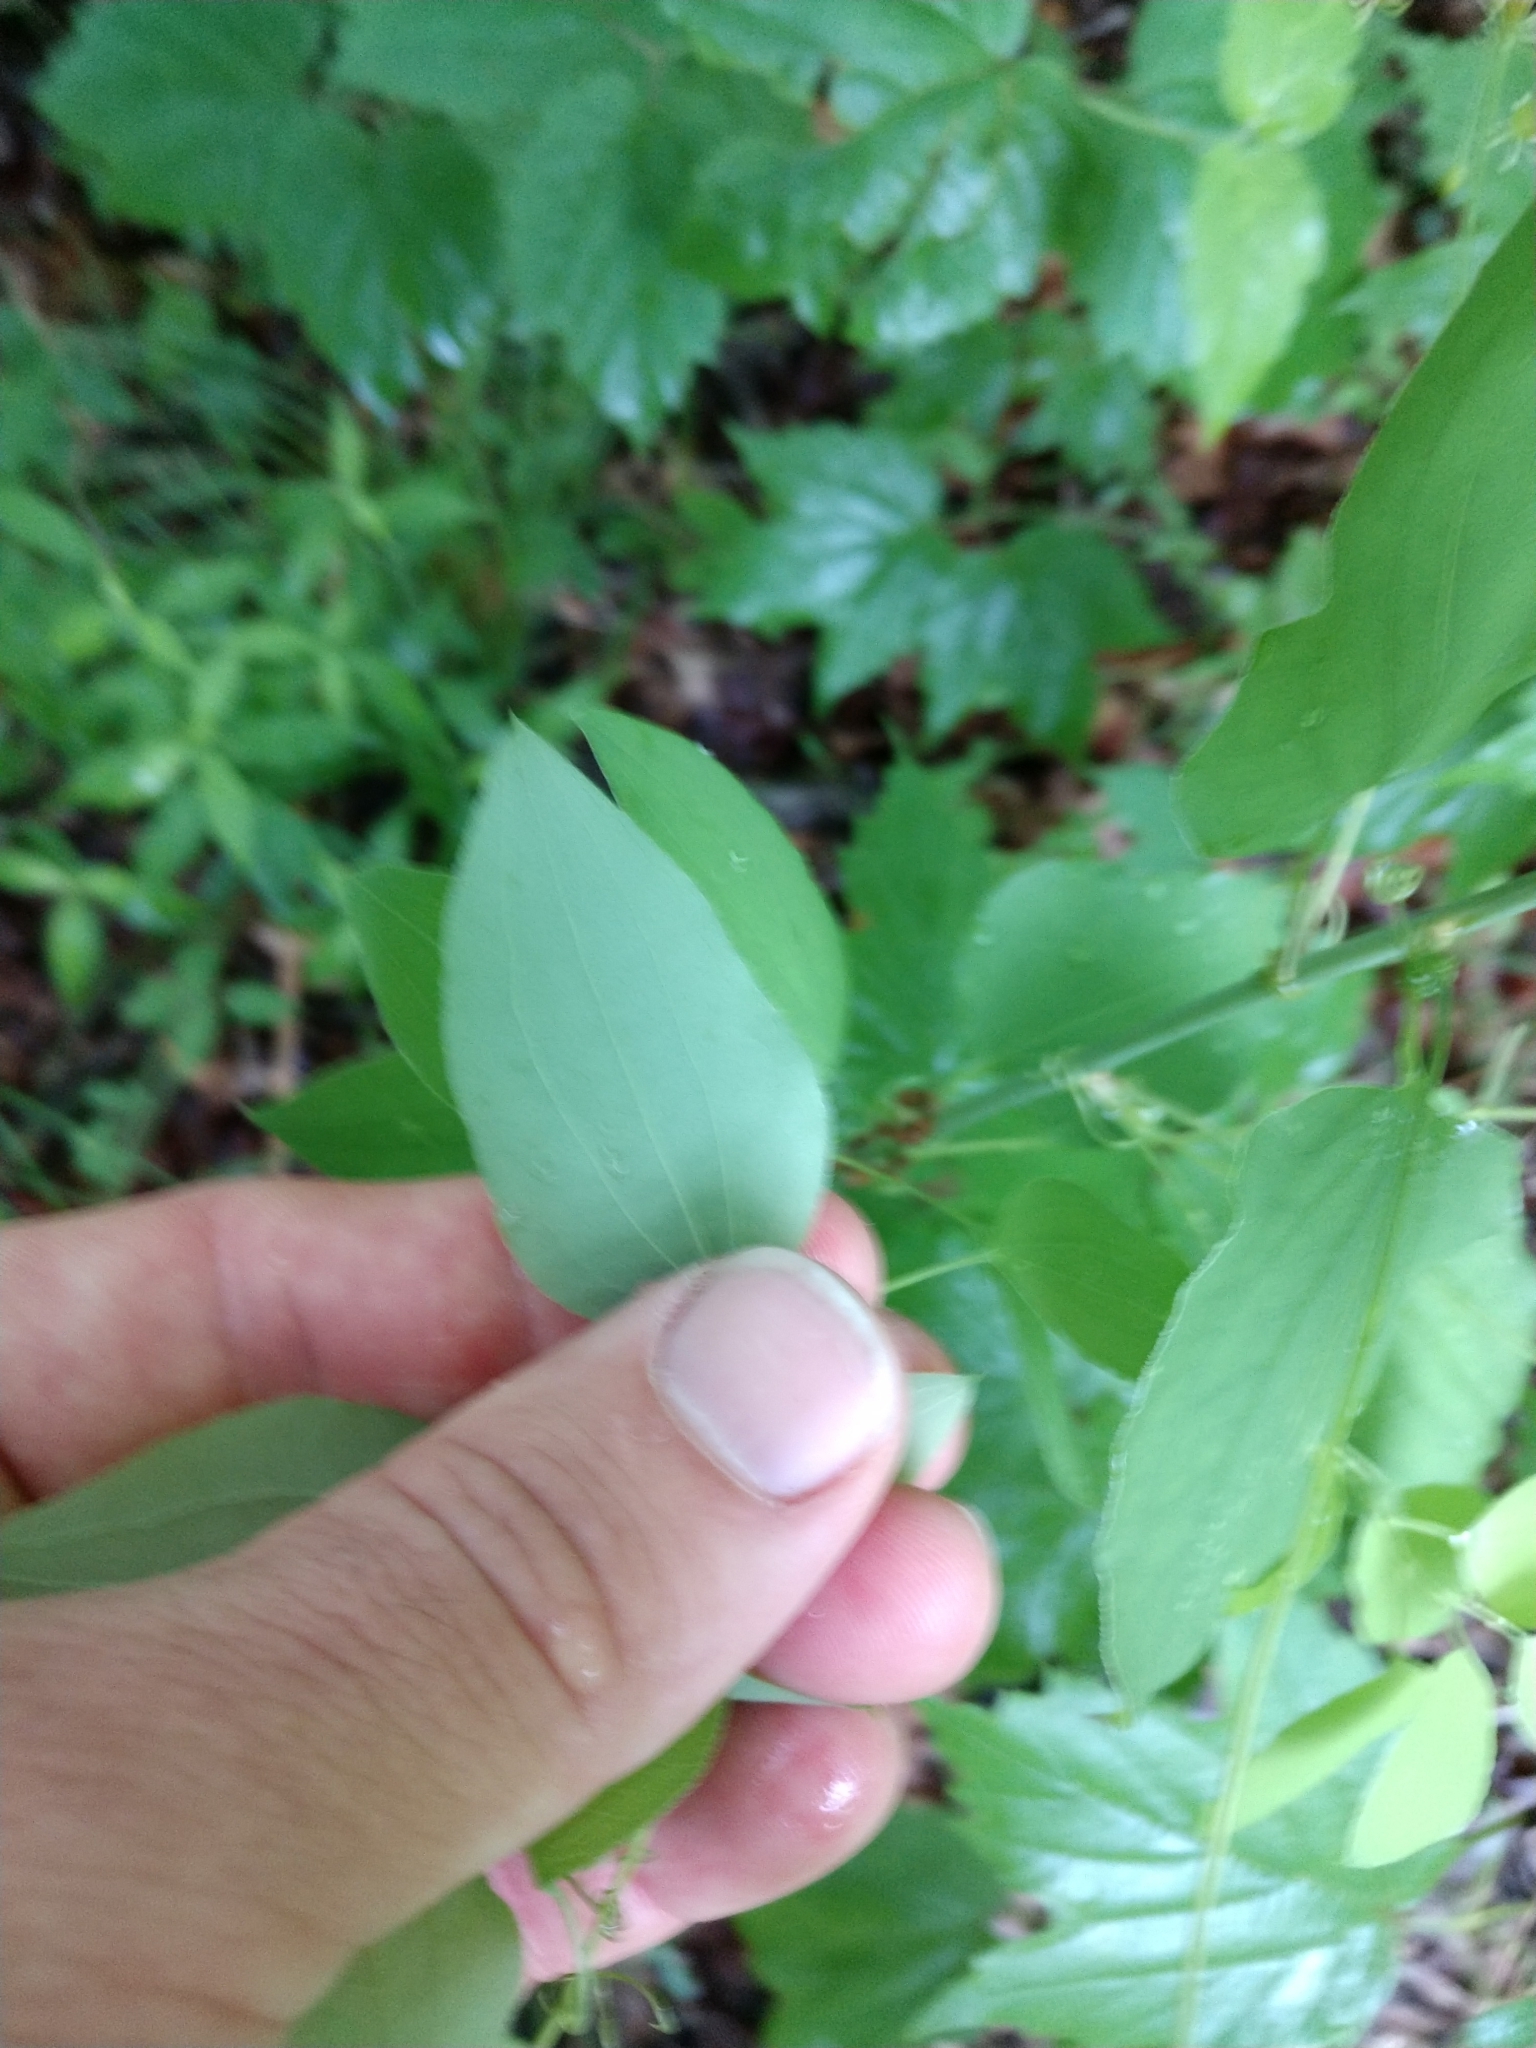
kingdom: Plantae
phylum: Tracheophyta
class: Liliopsida
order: Liliales
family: Smilacaceae
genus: Smilax
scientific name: Smilax herbacea
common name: Jacob's-ladder
